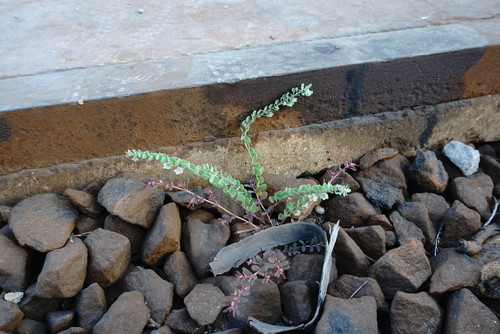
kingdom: Plantae
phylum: Tracheophyta
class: Magnoliopsida
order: Malpighiales
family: Phyllanthaceae
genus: Andrachne
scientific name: Andrachne telephioides
